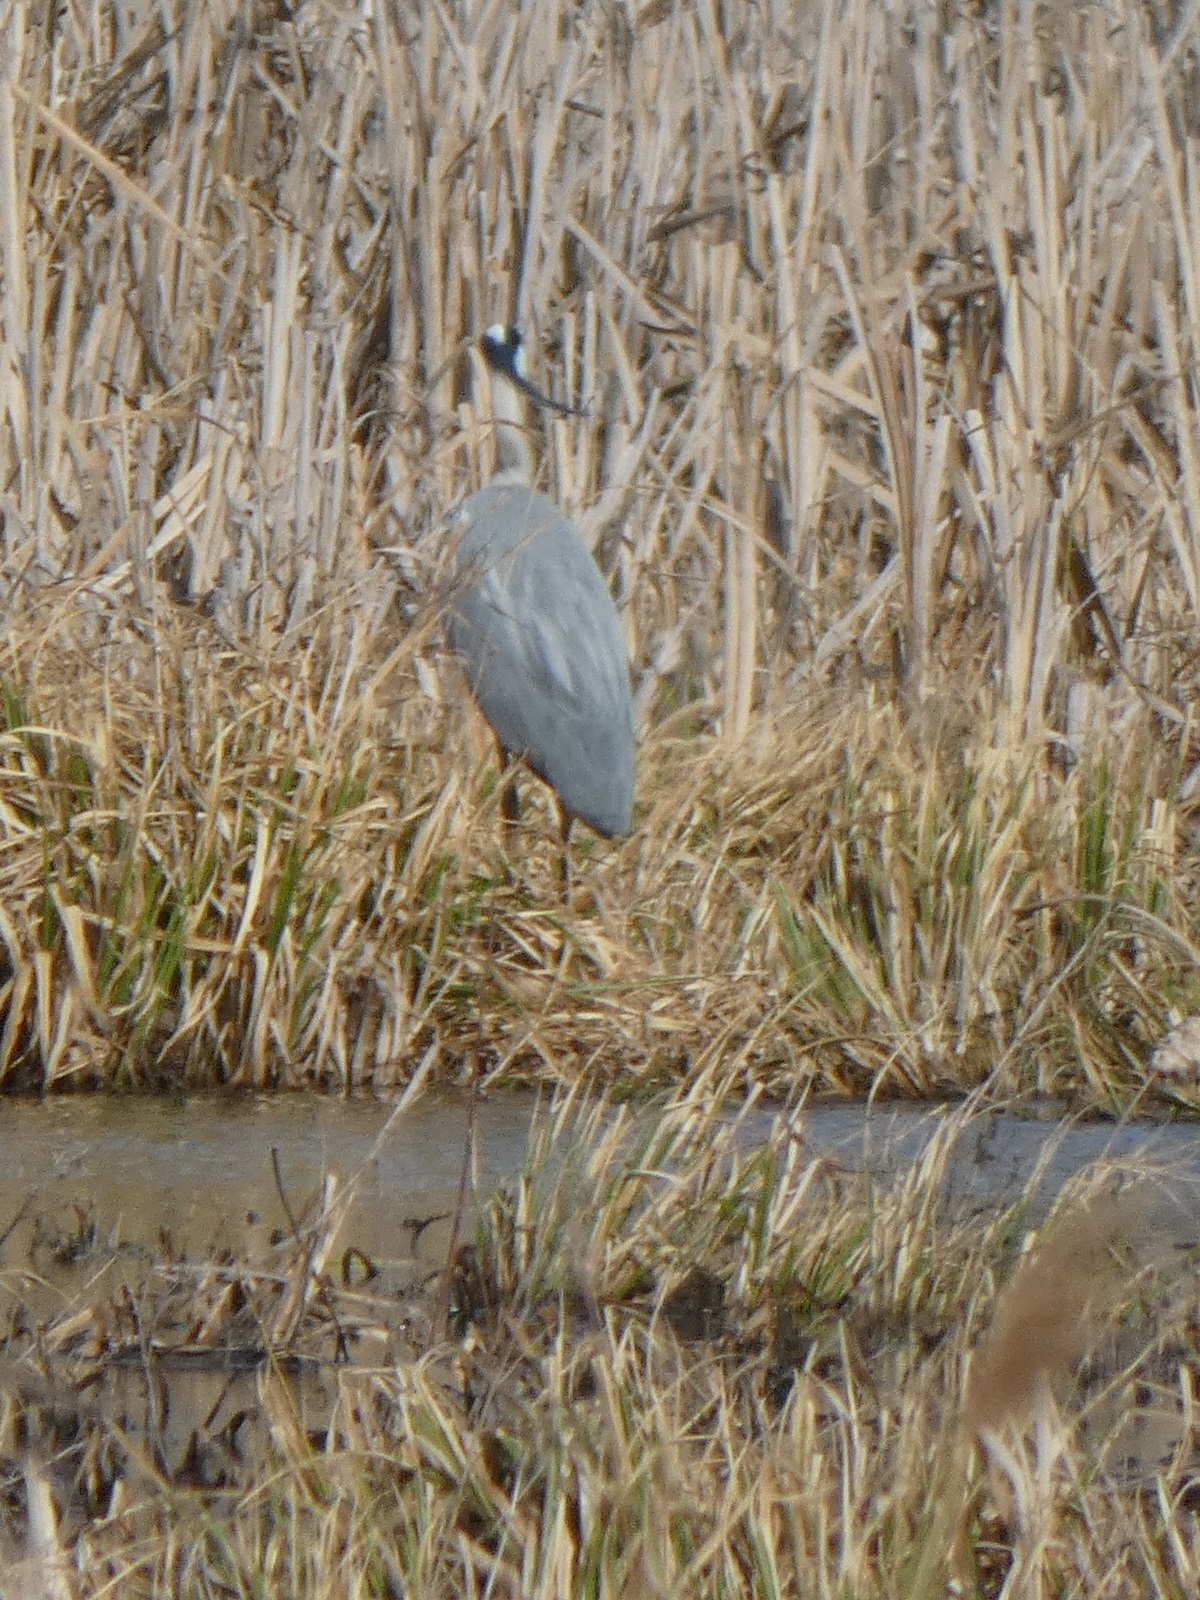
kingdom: Animalia
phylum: Chordata
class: Aves
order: Pelecaniformes
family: Ardeidae
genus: Ardea
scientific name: Ardea cinerea
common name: Grey heron
